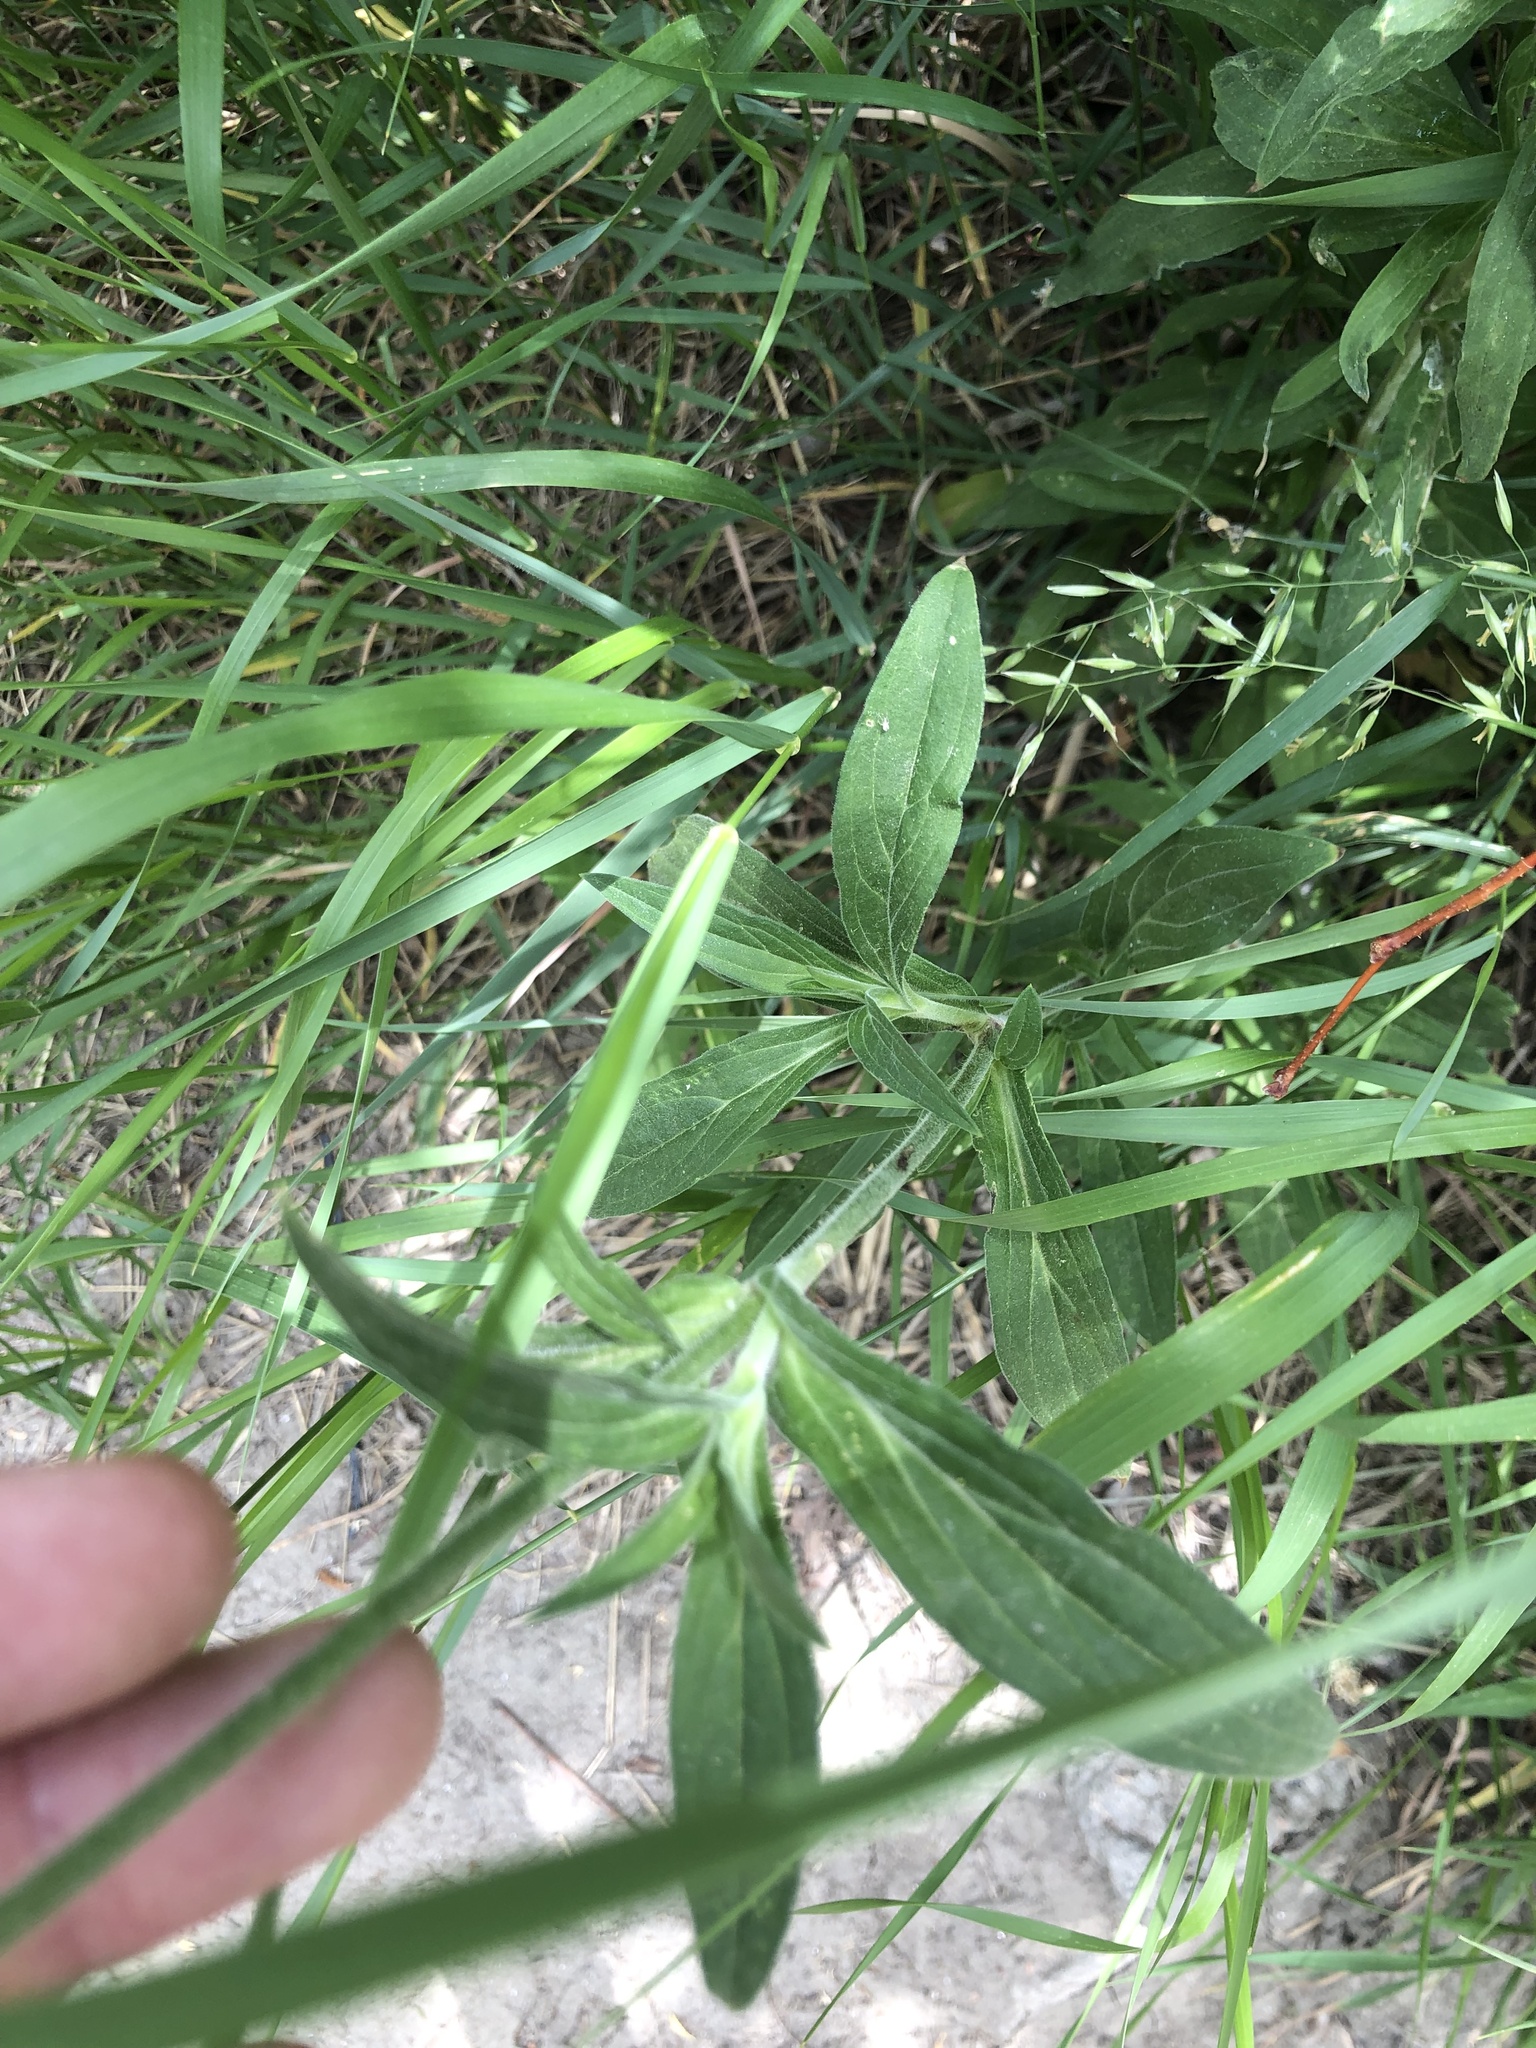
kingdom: Plantae
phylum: Tracheophyta
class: Magnoliopsida
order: Caryophyllales
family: Caryophyllaceae
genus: Silene
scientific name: Silene latifolia
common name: White campion
